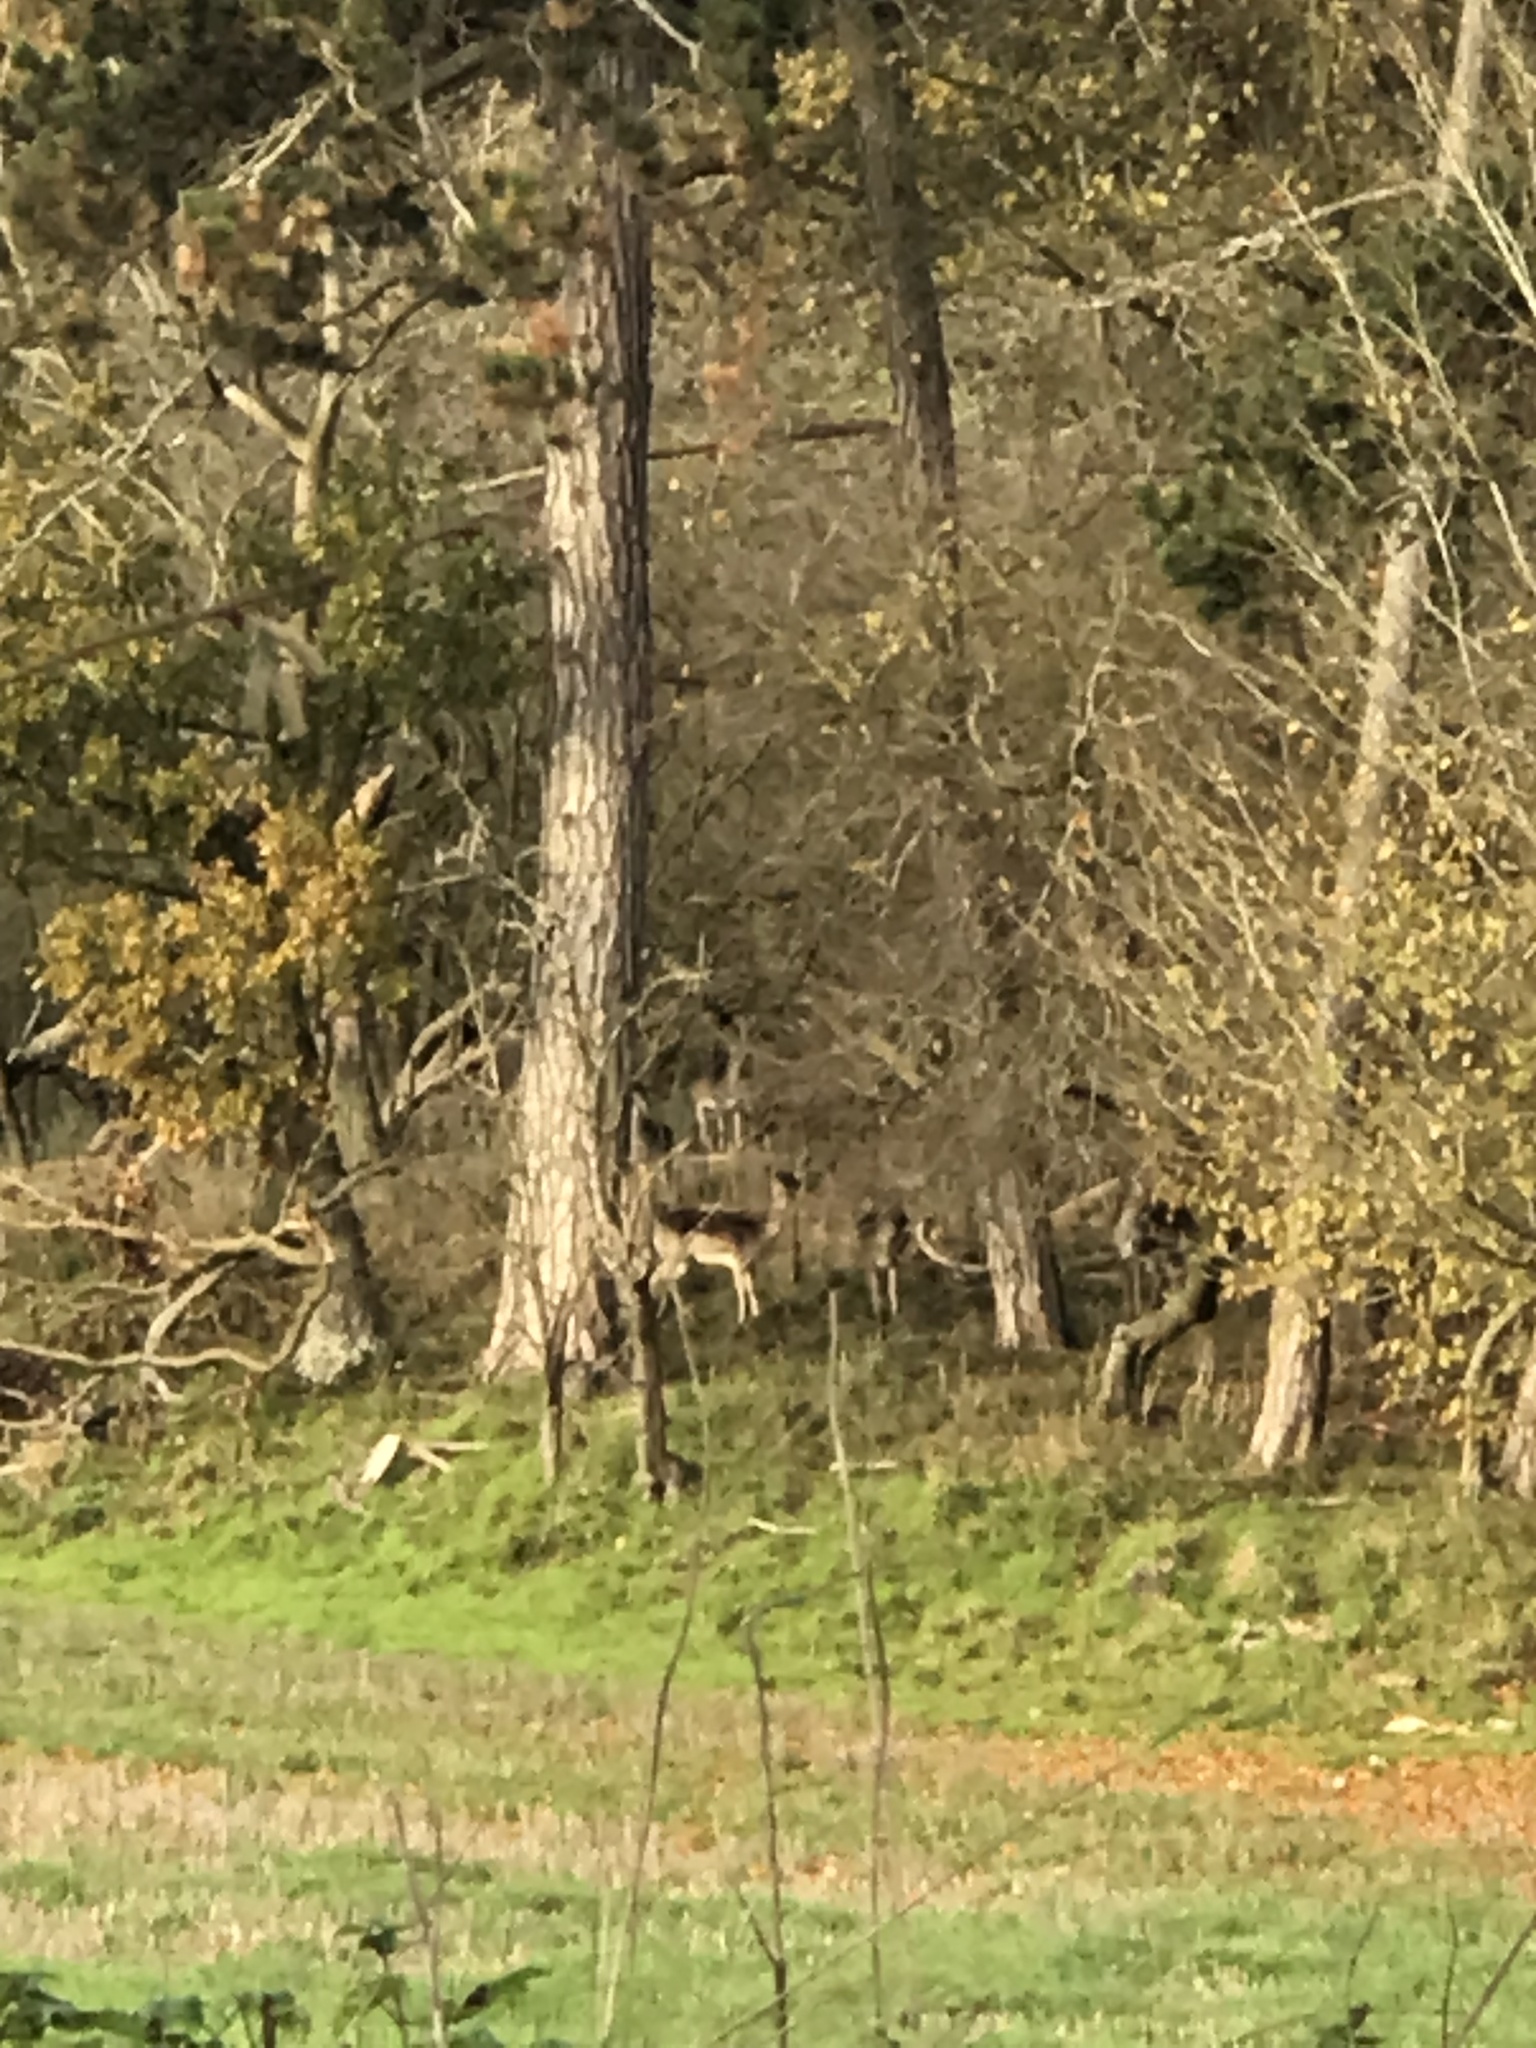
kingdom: Animalia
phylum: Chordata
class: Mammalia
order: Artiodactyla
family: Cervidae
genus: Dama
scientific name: Dama dama
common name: Fallow deer
